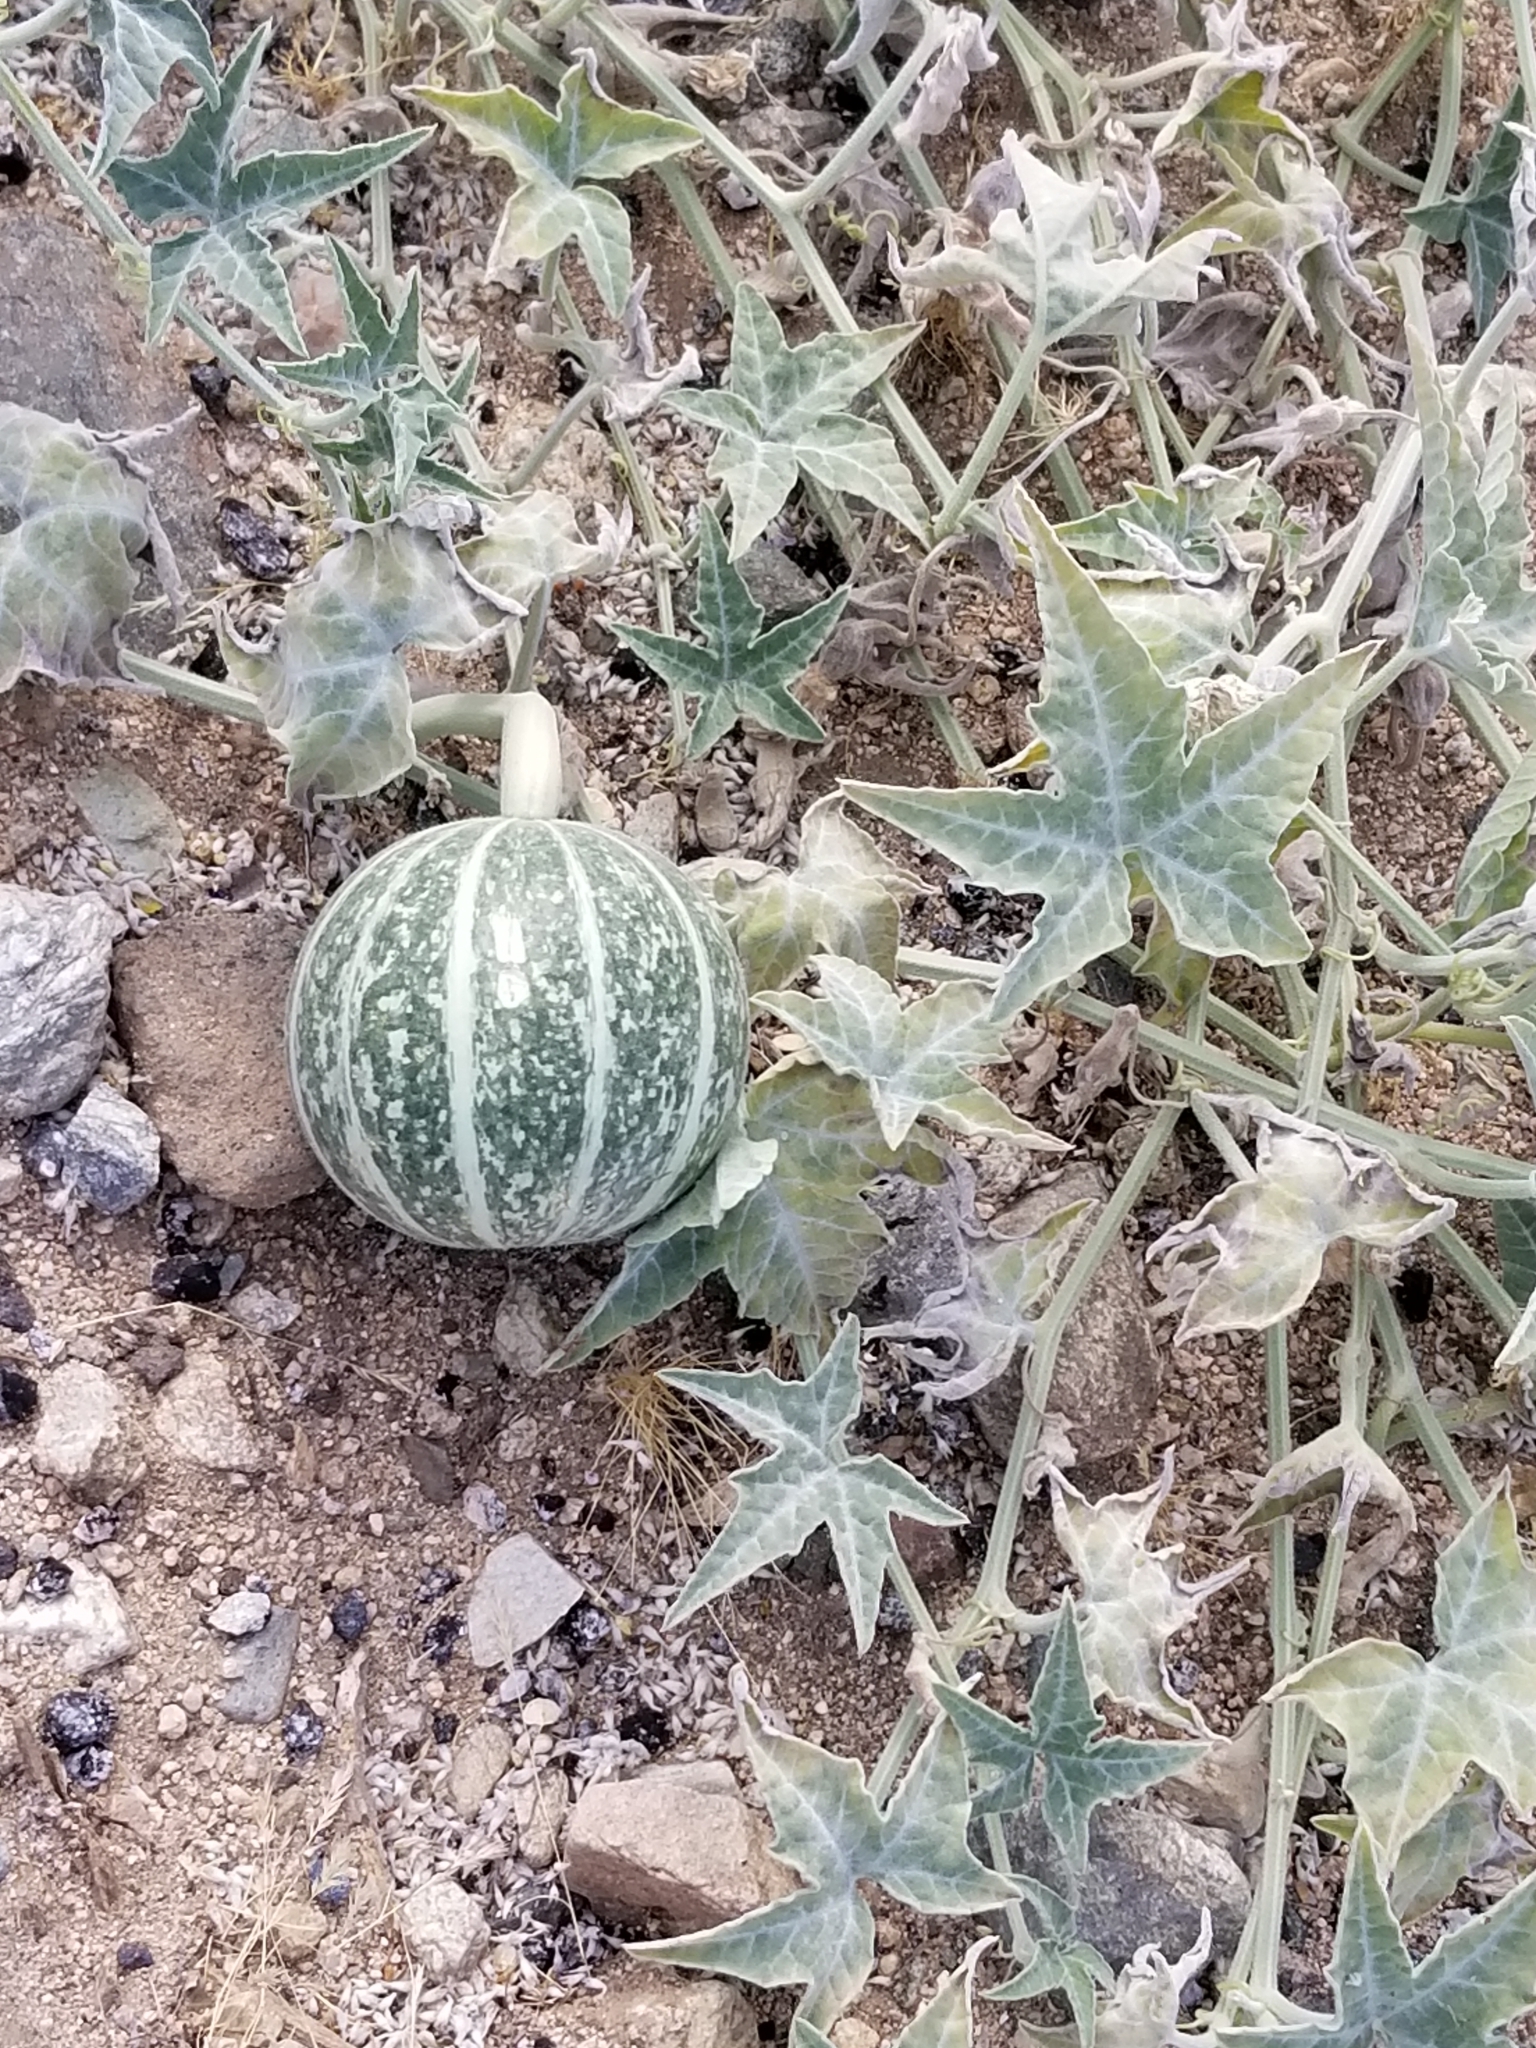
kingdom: Plantae
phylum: Tracheophyta
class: Magnoliopsida
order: Cucurbitales
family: Cucurbitaceae
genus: Cucurbita
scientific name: Cucurbita palmata
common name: Coyote-melon
